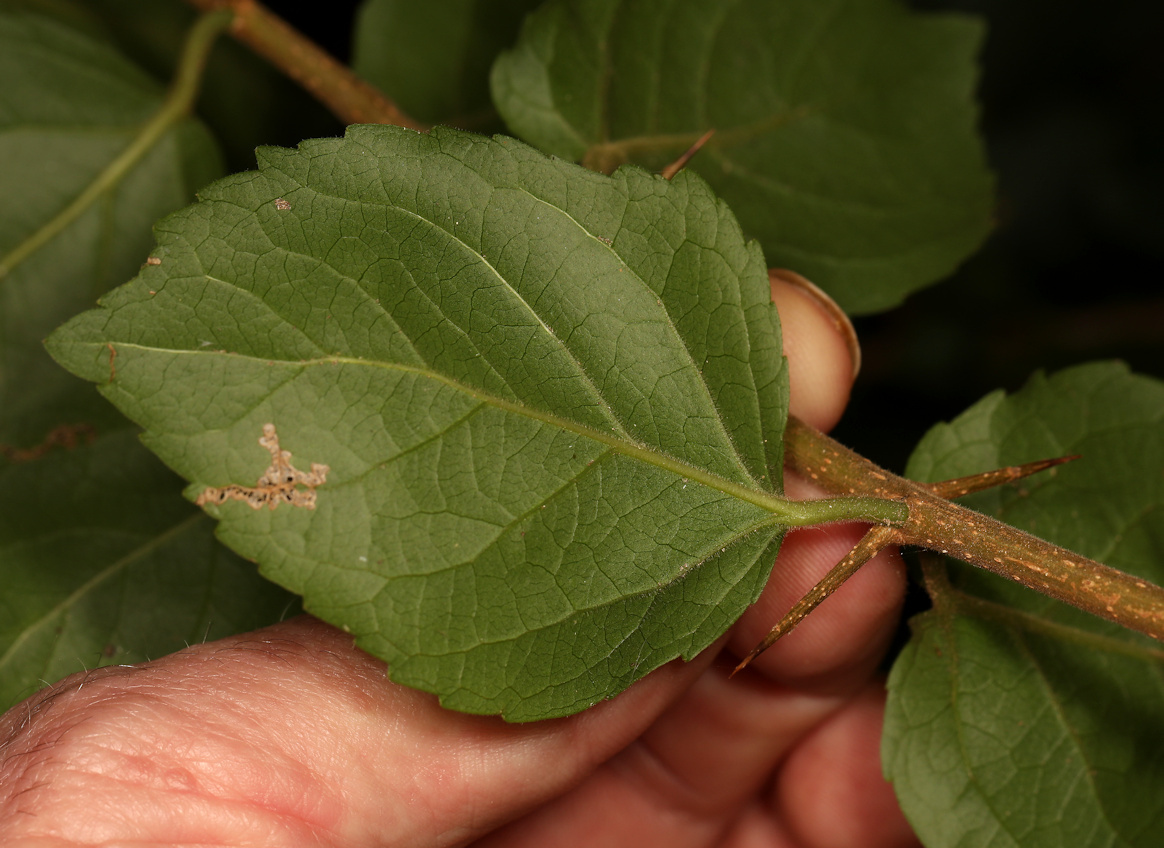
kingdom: Plantae
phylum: Tracheophyta
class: Magnoliopsida
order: Malpighiales
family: Salicaceae
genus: Flacourtia
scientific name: Flacourtia indica
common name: Governor's plum
